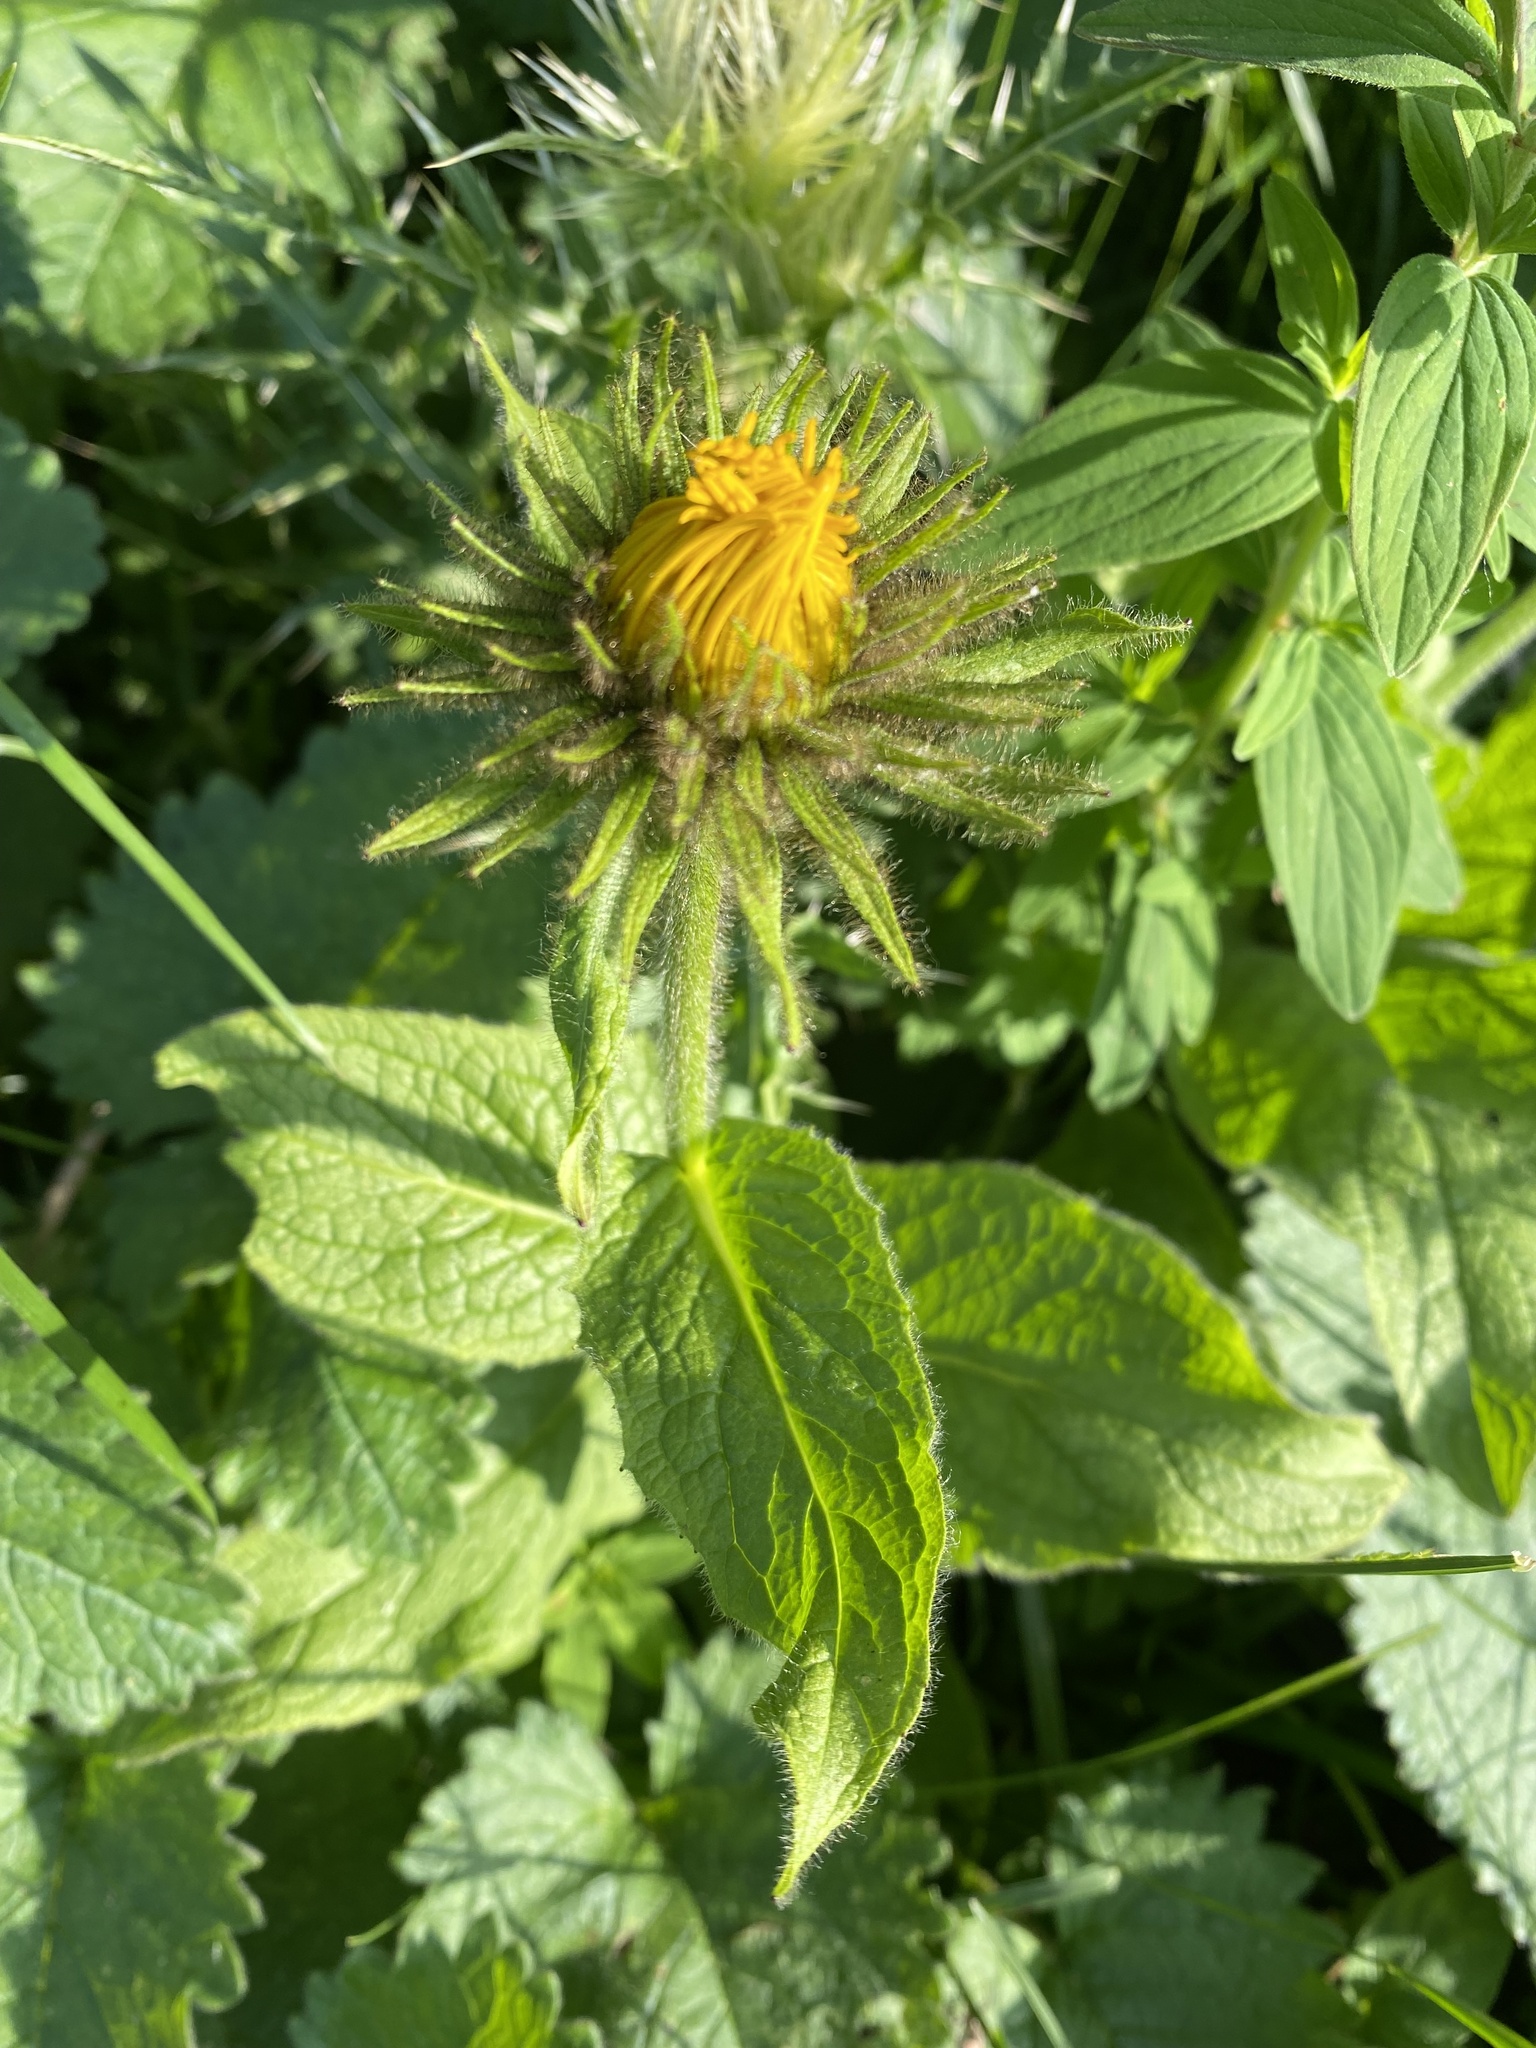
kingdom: Plantae
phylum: Tracheophyta
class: Magnoliopsida
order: Asterales
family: Asteraceae
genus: Pentanema
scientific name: Pentanema orientale
